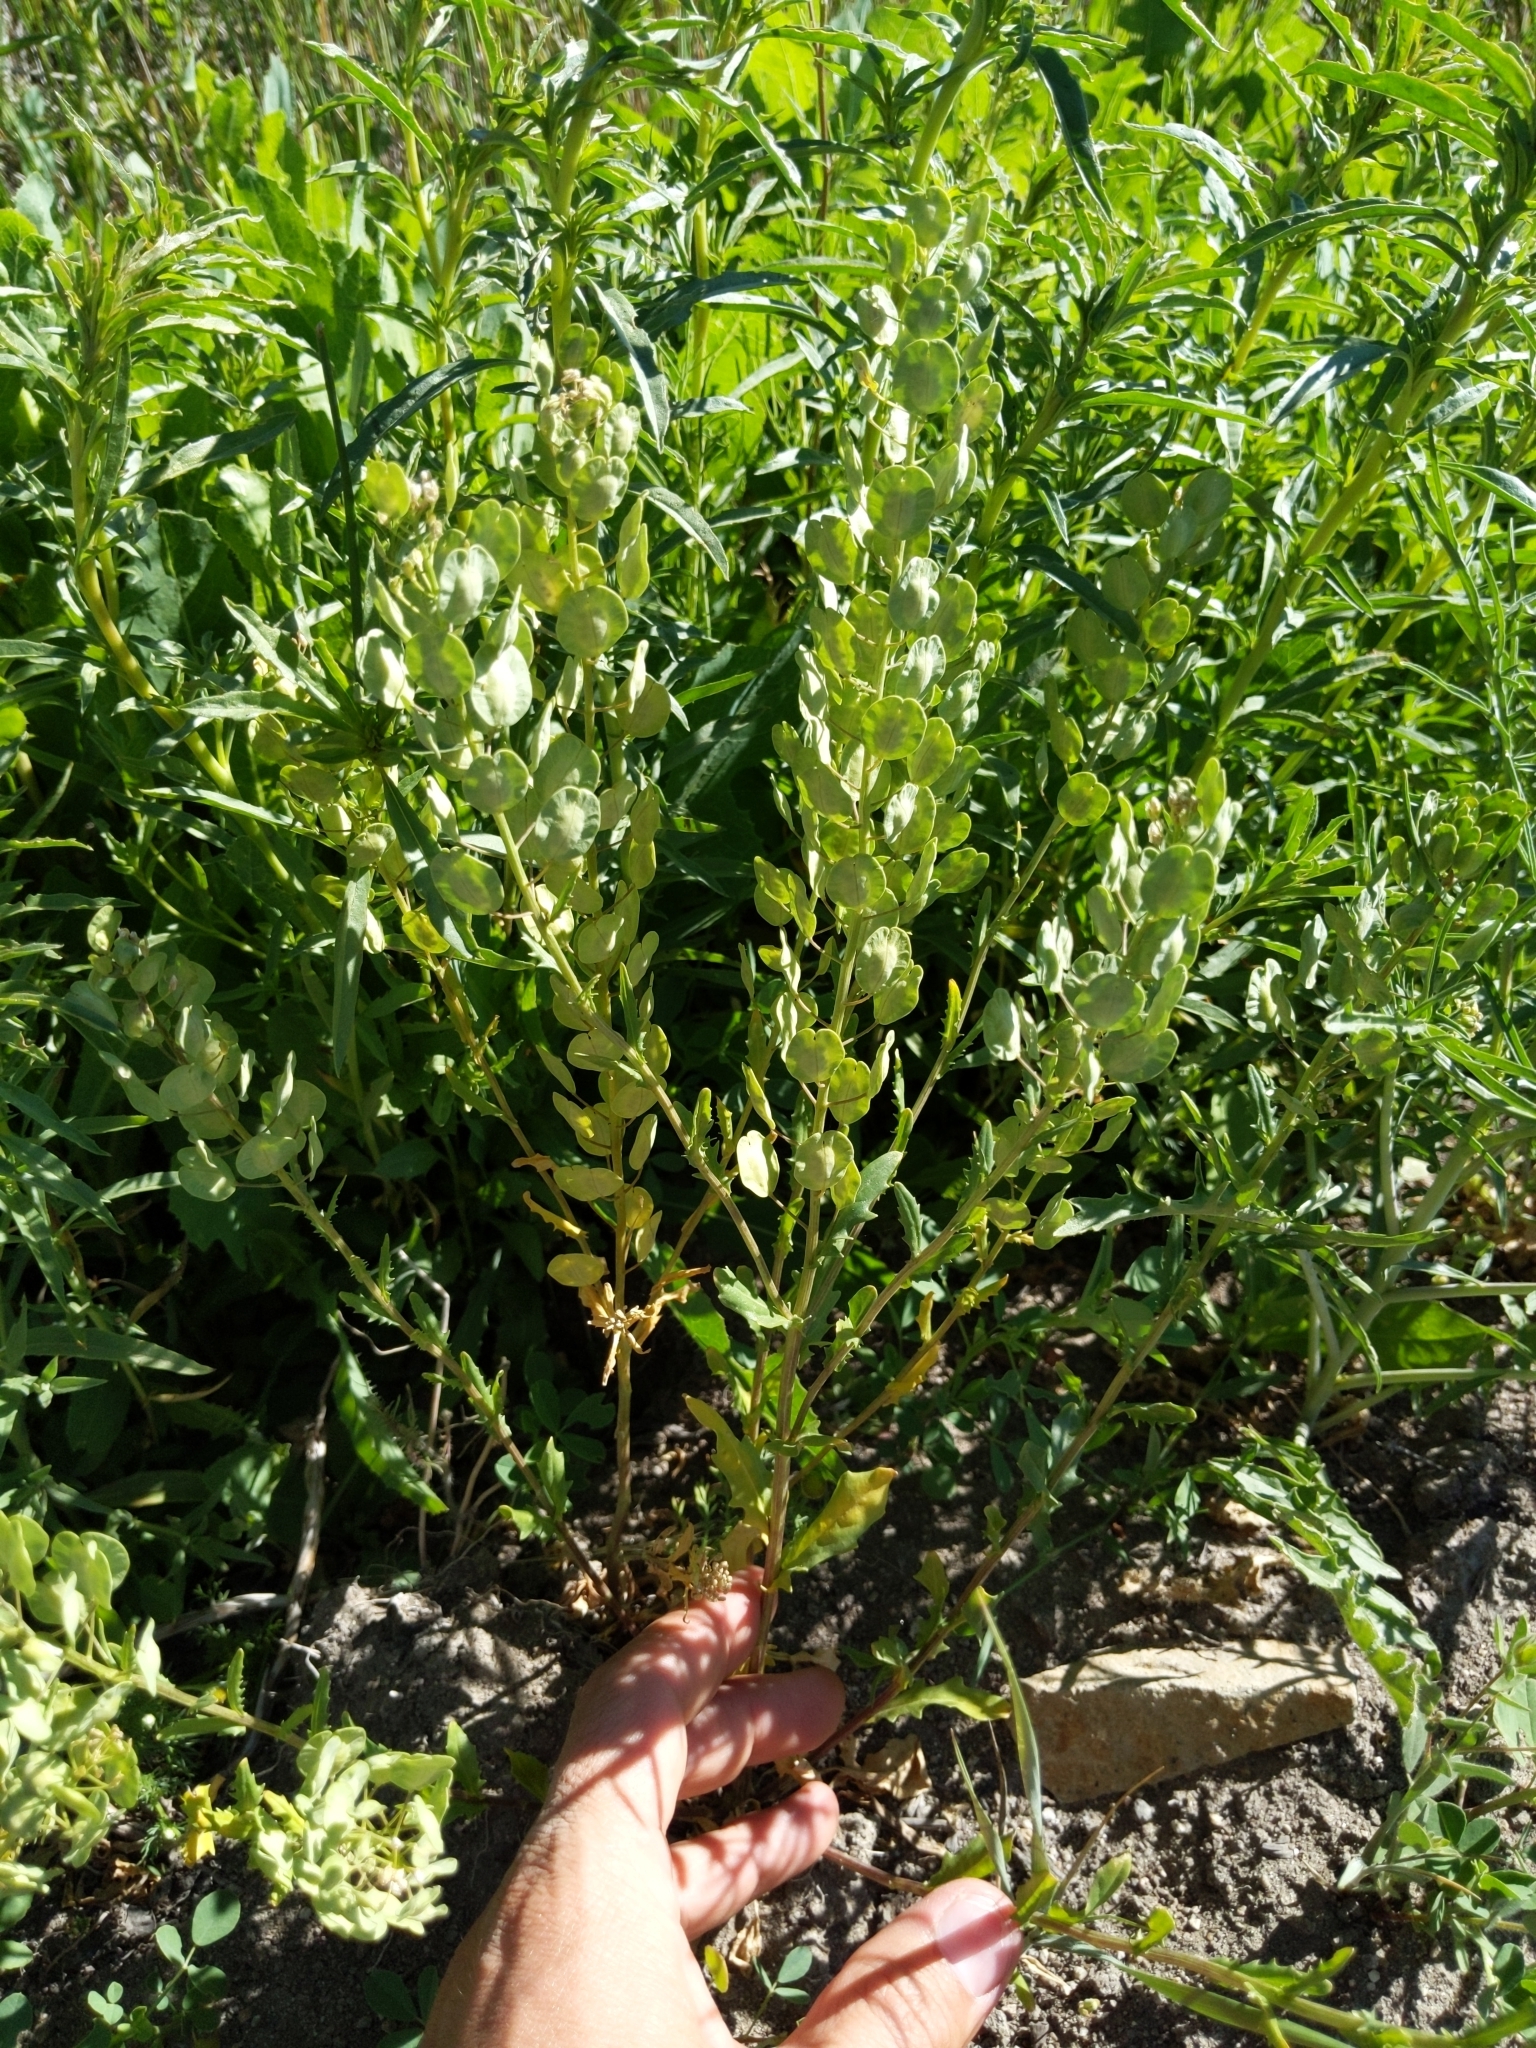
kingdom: Plantae
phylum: Tracheophyta
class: Magnoliopsida
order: Brassicales
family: Brassicaceae
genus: Thlaspi
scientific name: Thlaspi arvense
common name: Field pennycress
